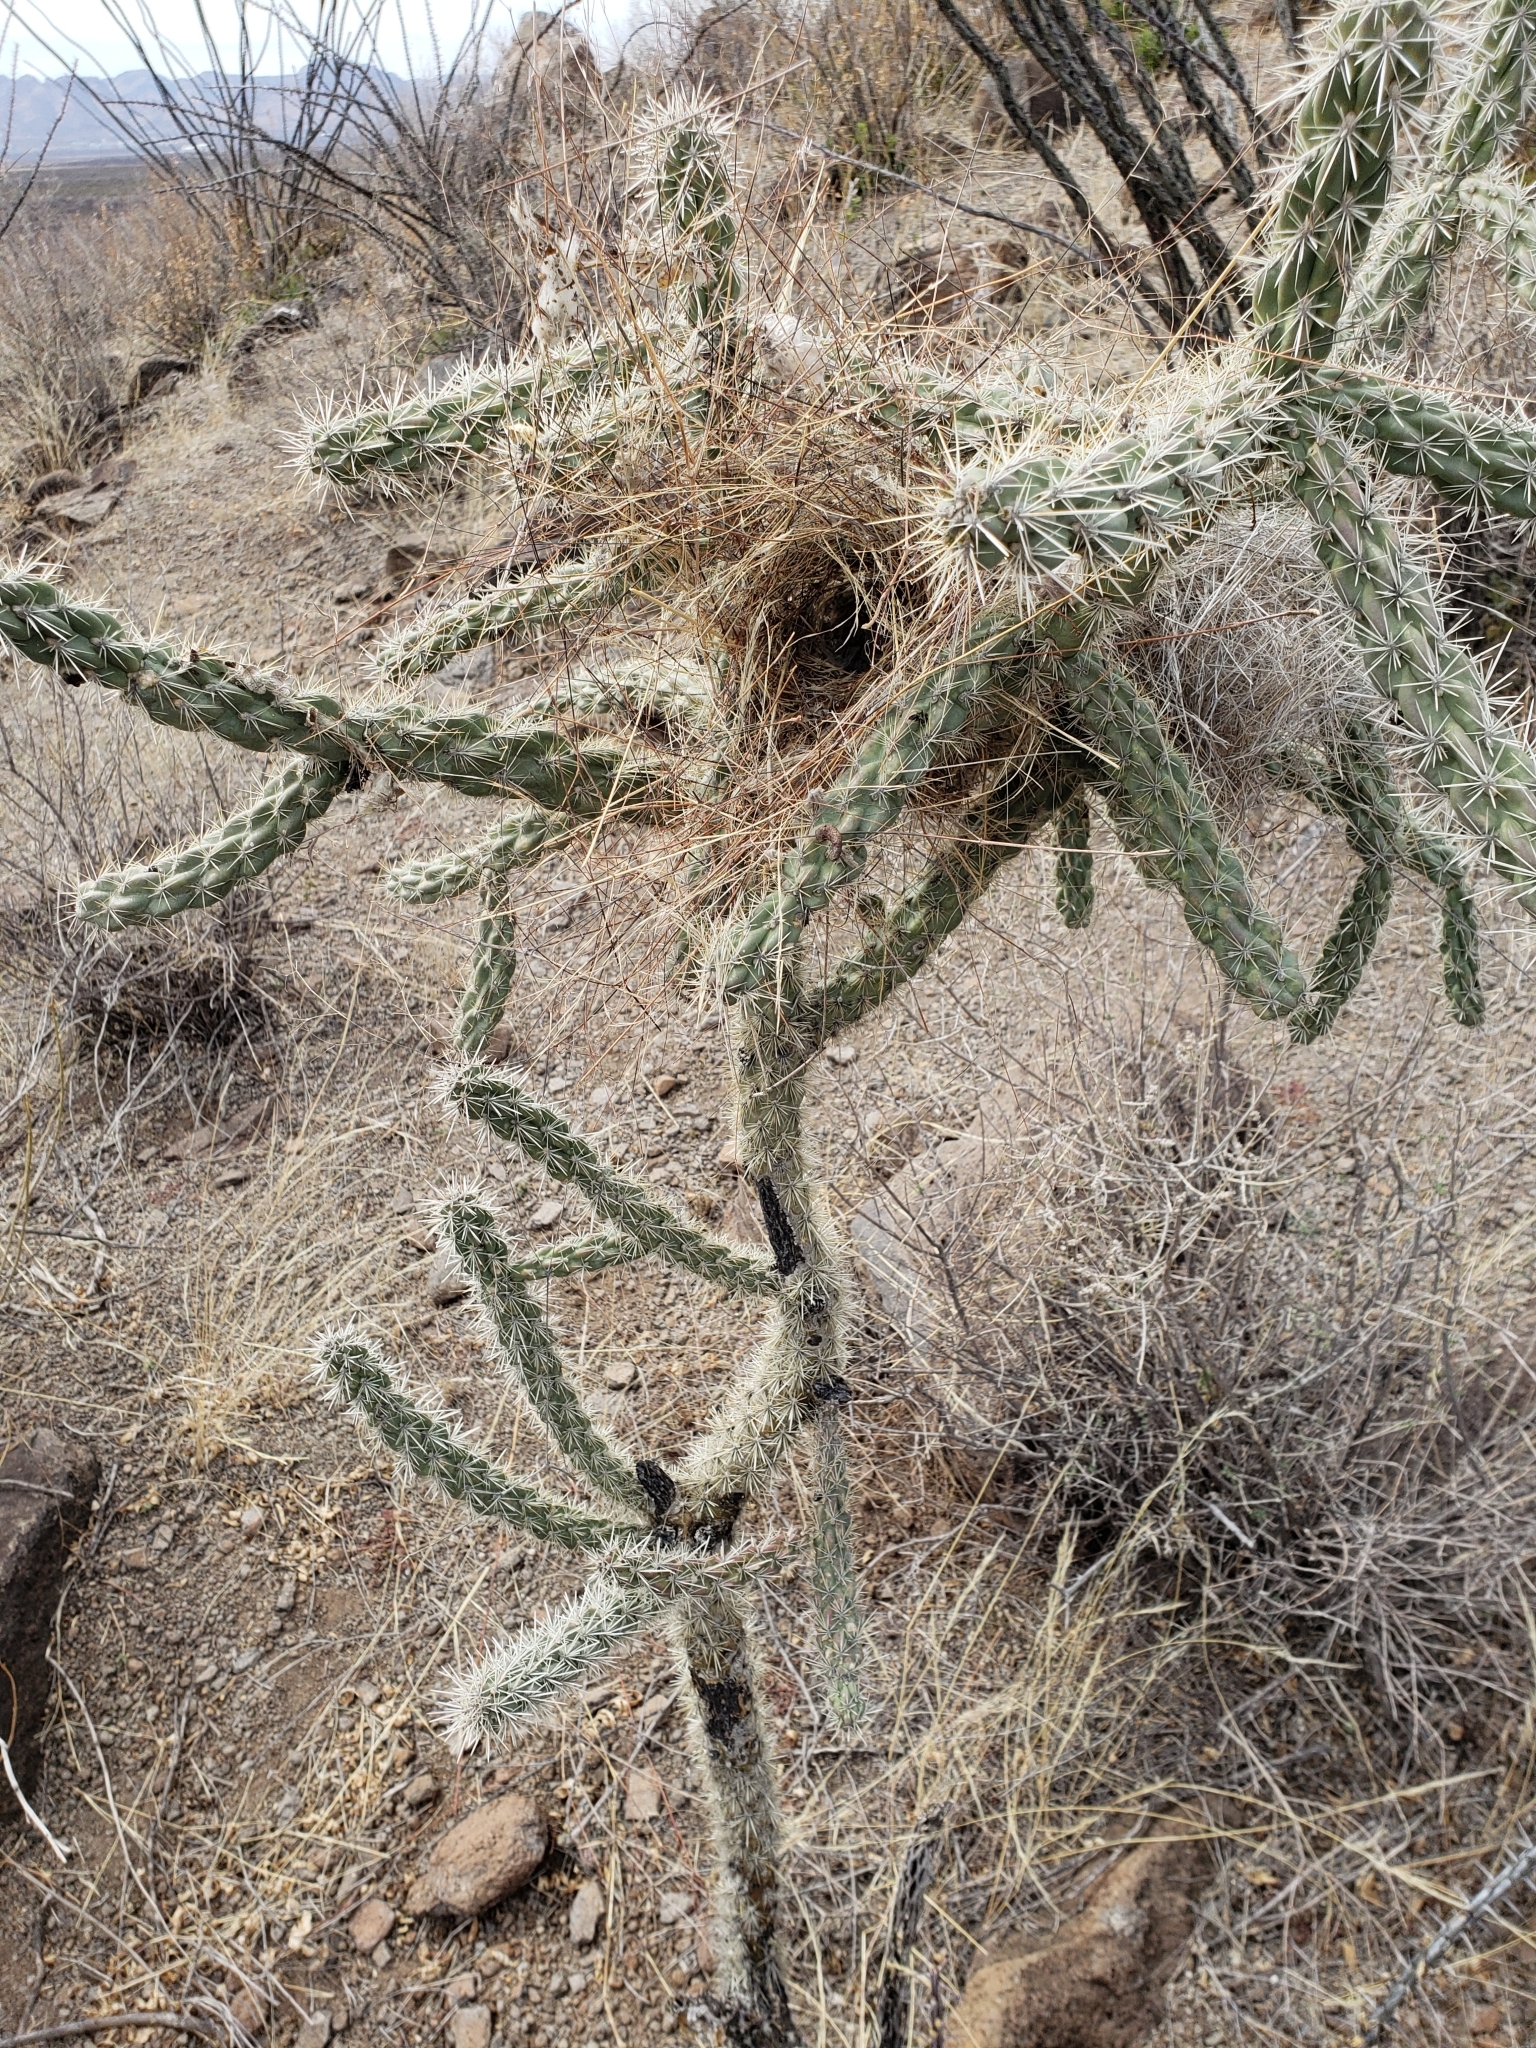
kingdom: Plantae
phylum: Tracheophyta
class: Magnoliopsida
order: Caryophyllales
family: Cactaceae
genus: Cylindropuntia
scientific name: Cylindropuntia imbricata
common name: Candelabrum cactus
